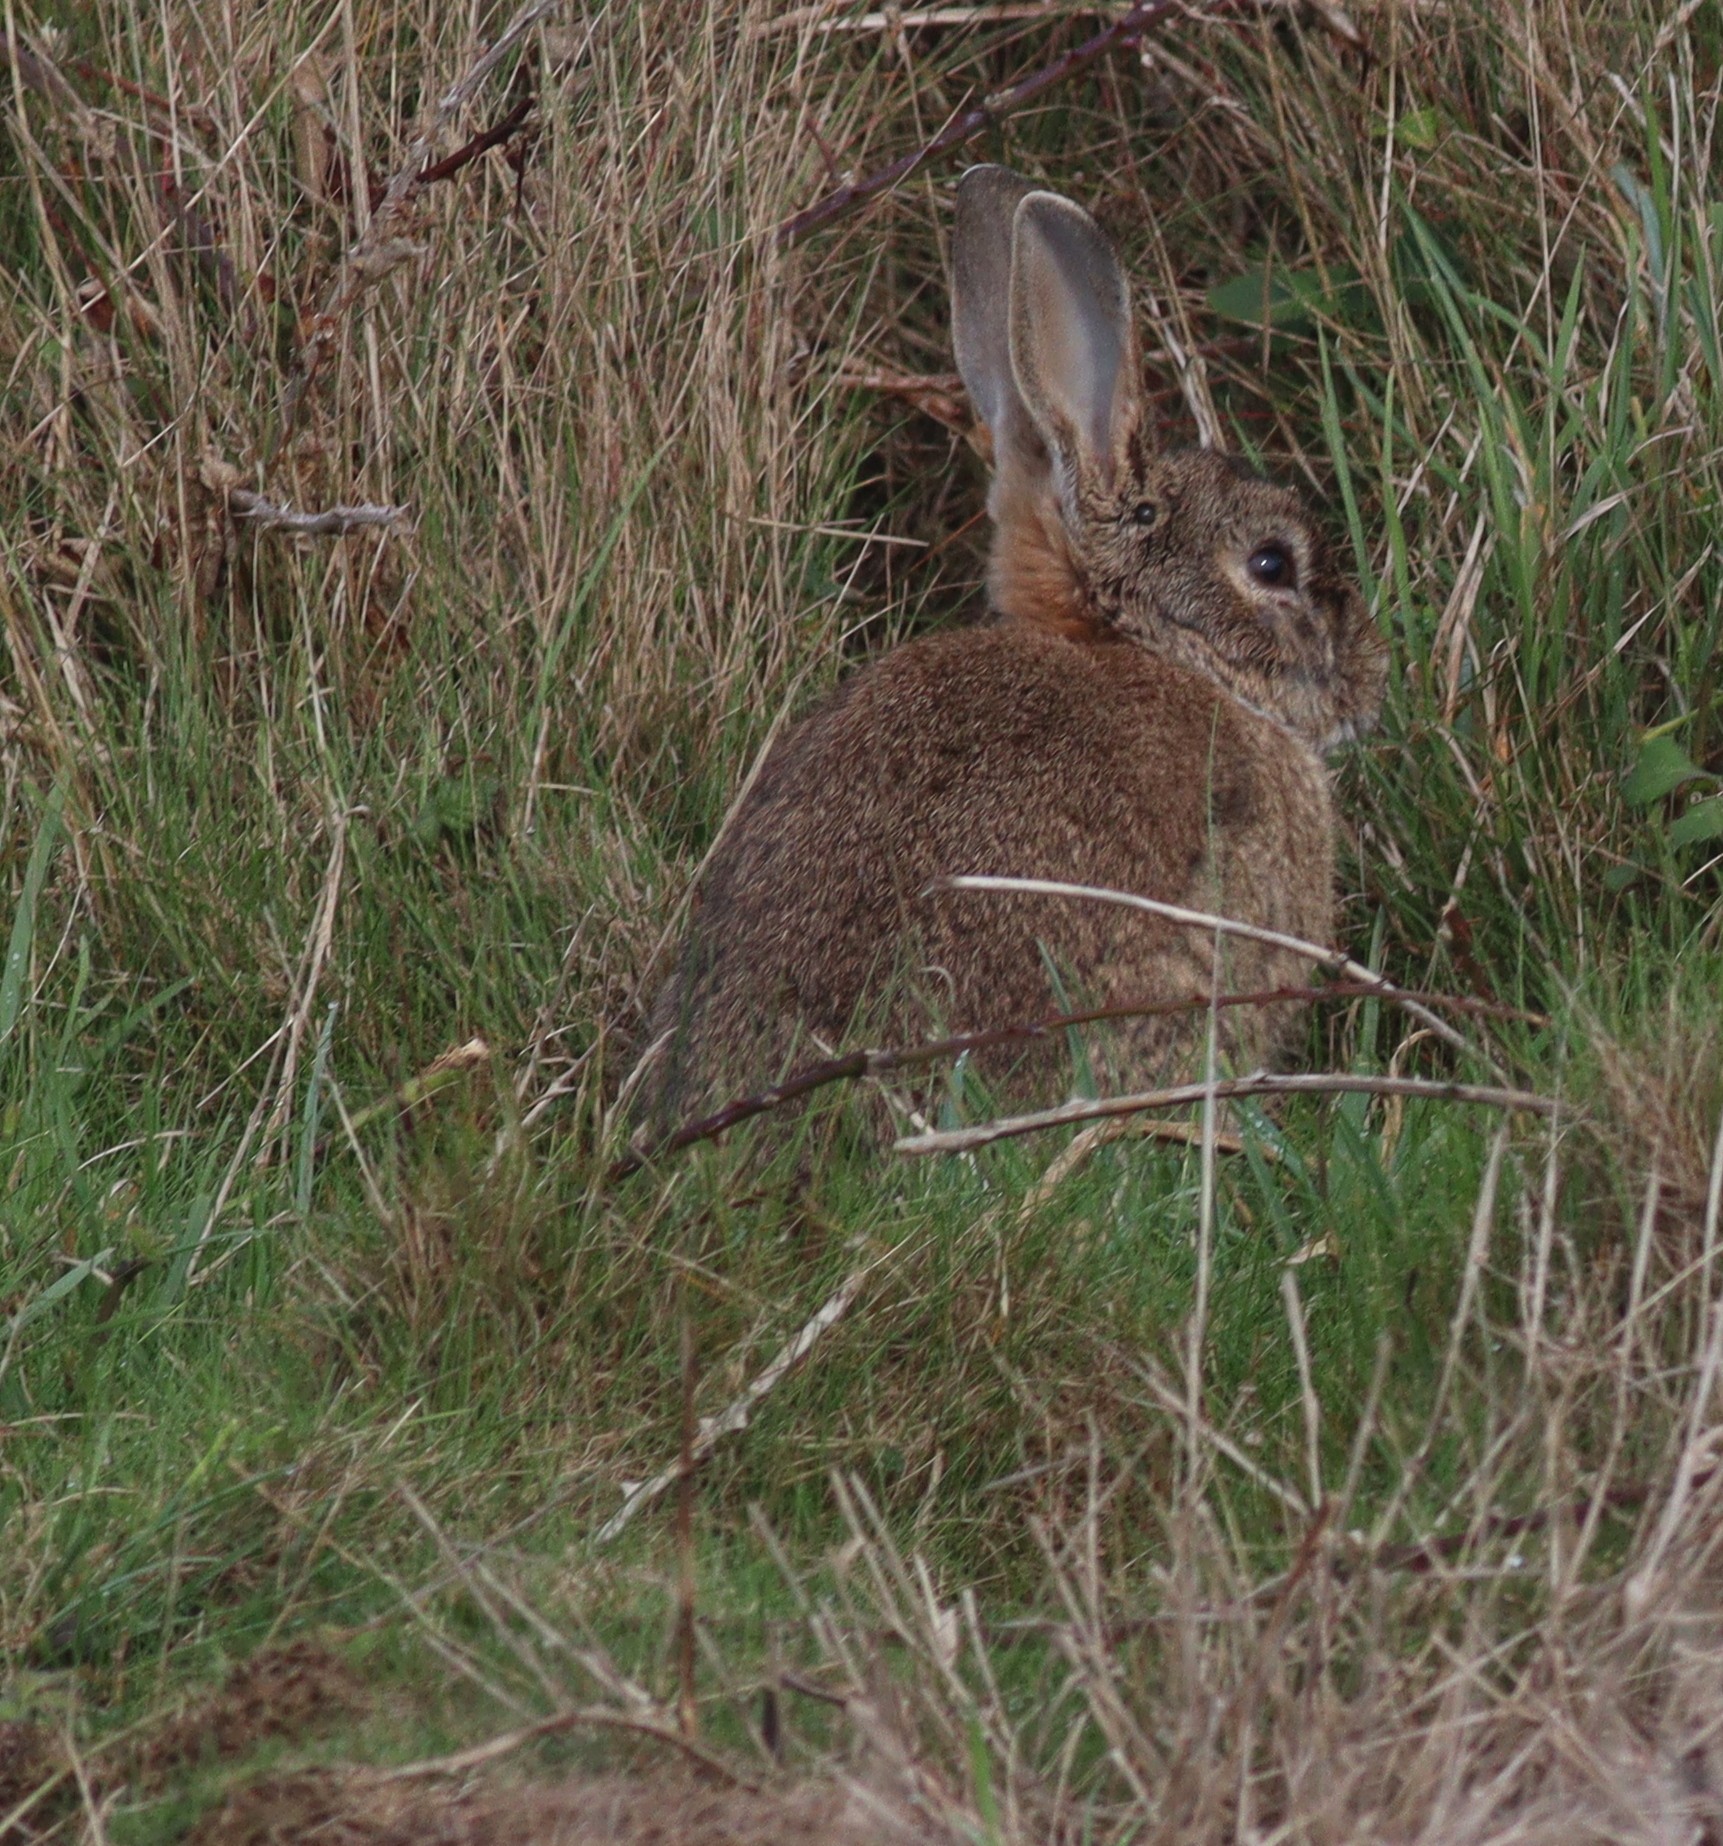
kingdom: Animalia
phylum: Chordata
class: Mammalia
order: Lagomorpha
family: Leporidae
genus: Oryctolagus
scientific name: Oryctolagus cuniculus
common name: European rabbit
